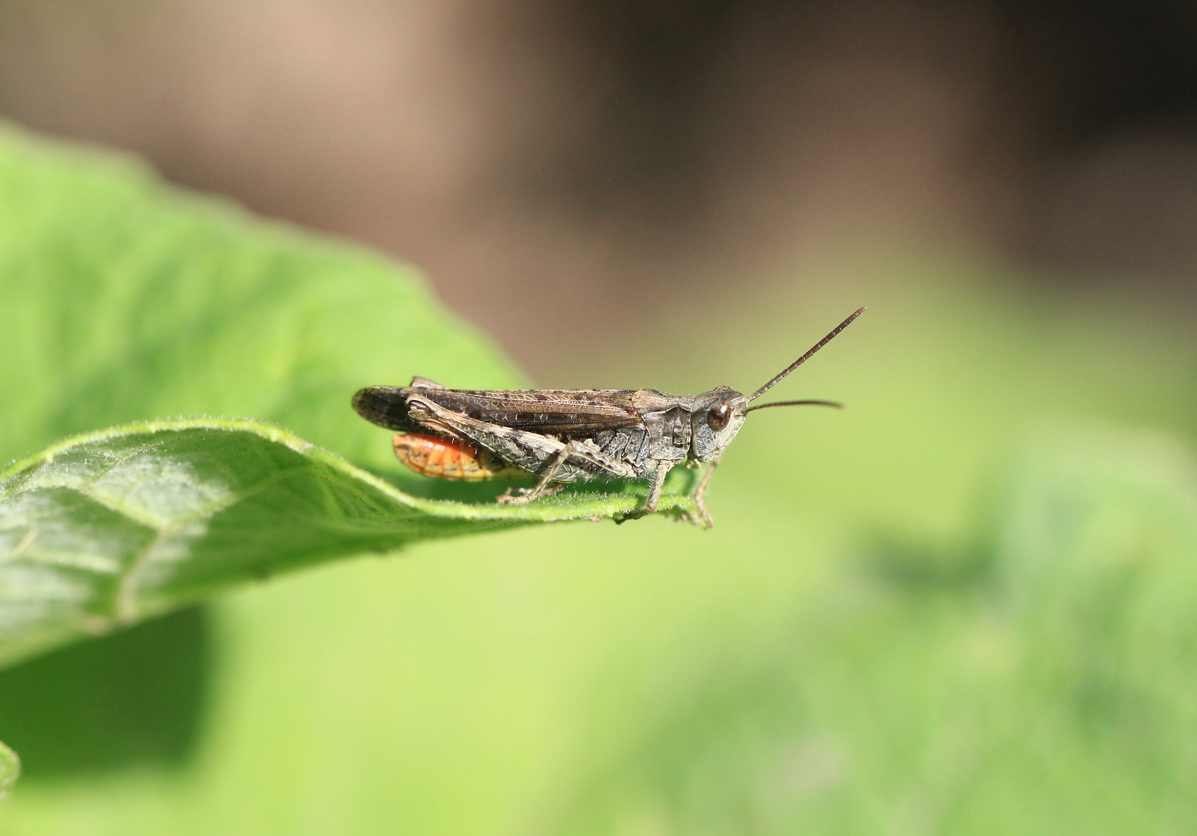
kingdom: Animalia
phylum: Arthropoda
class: Insecta
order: Orthoptera
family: Acrididae
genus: Chorthippus
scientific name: Chorthippus brunneus
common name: Field grasshopper
